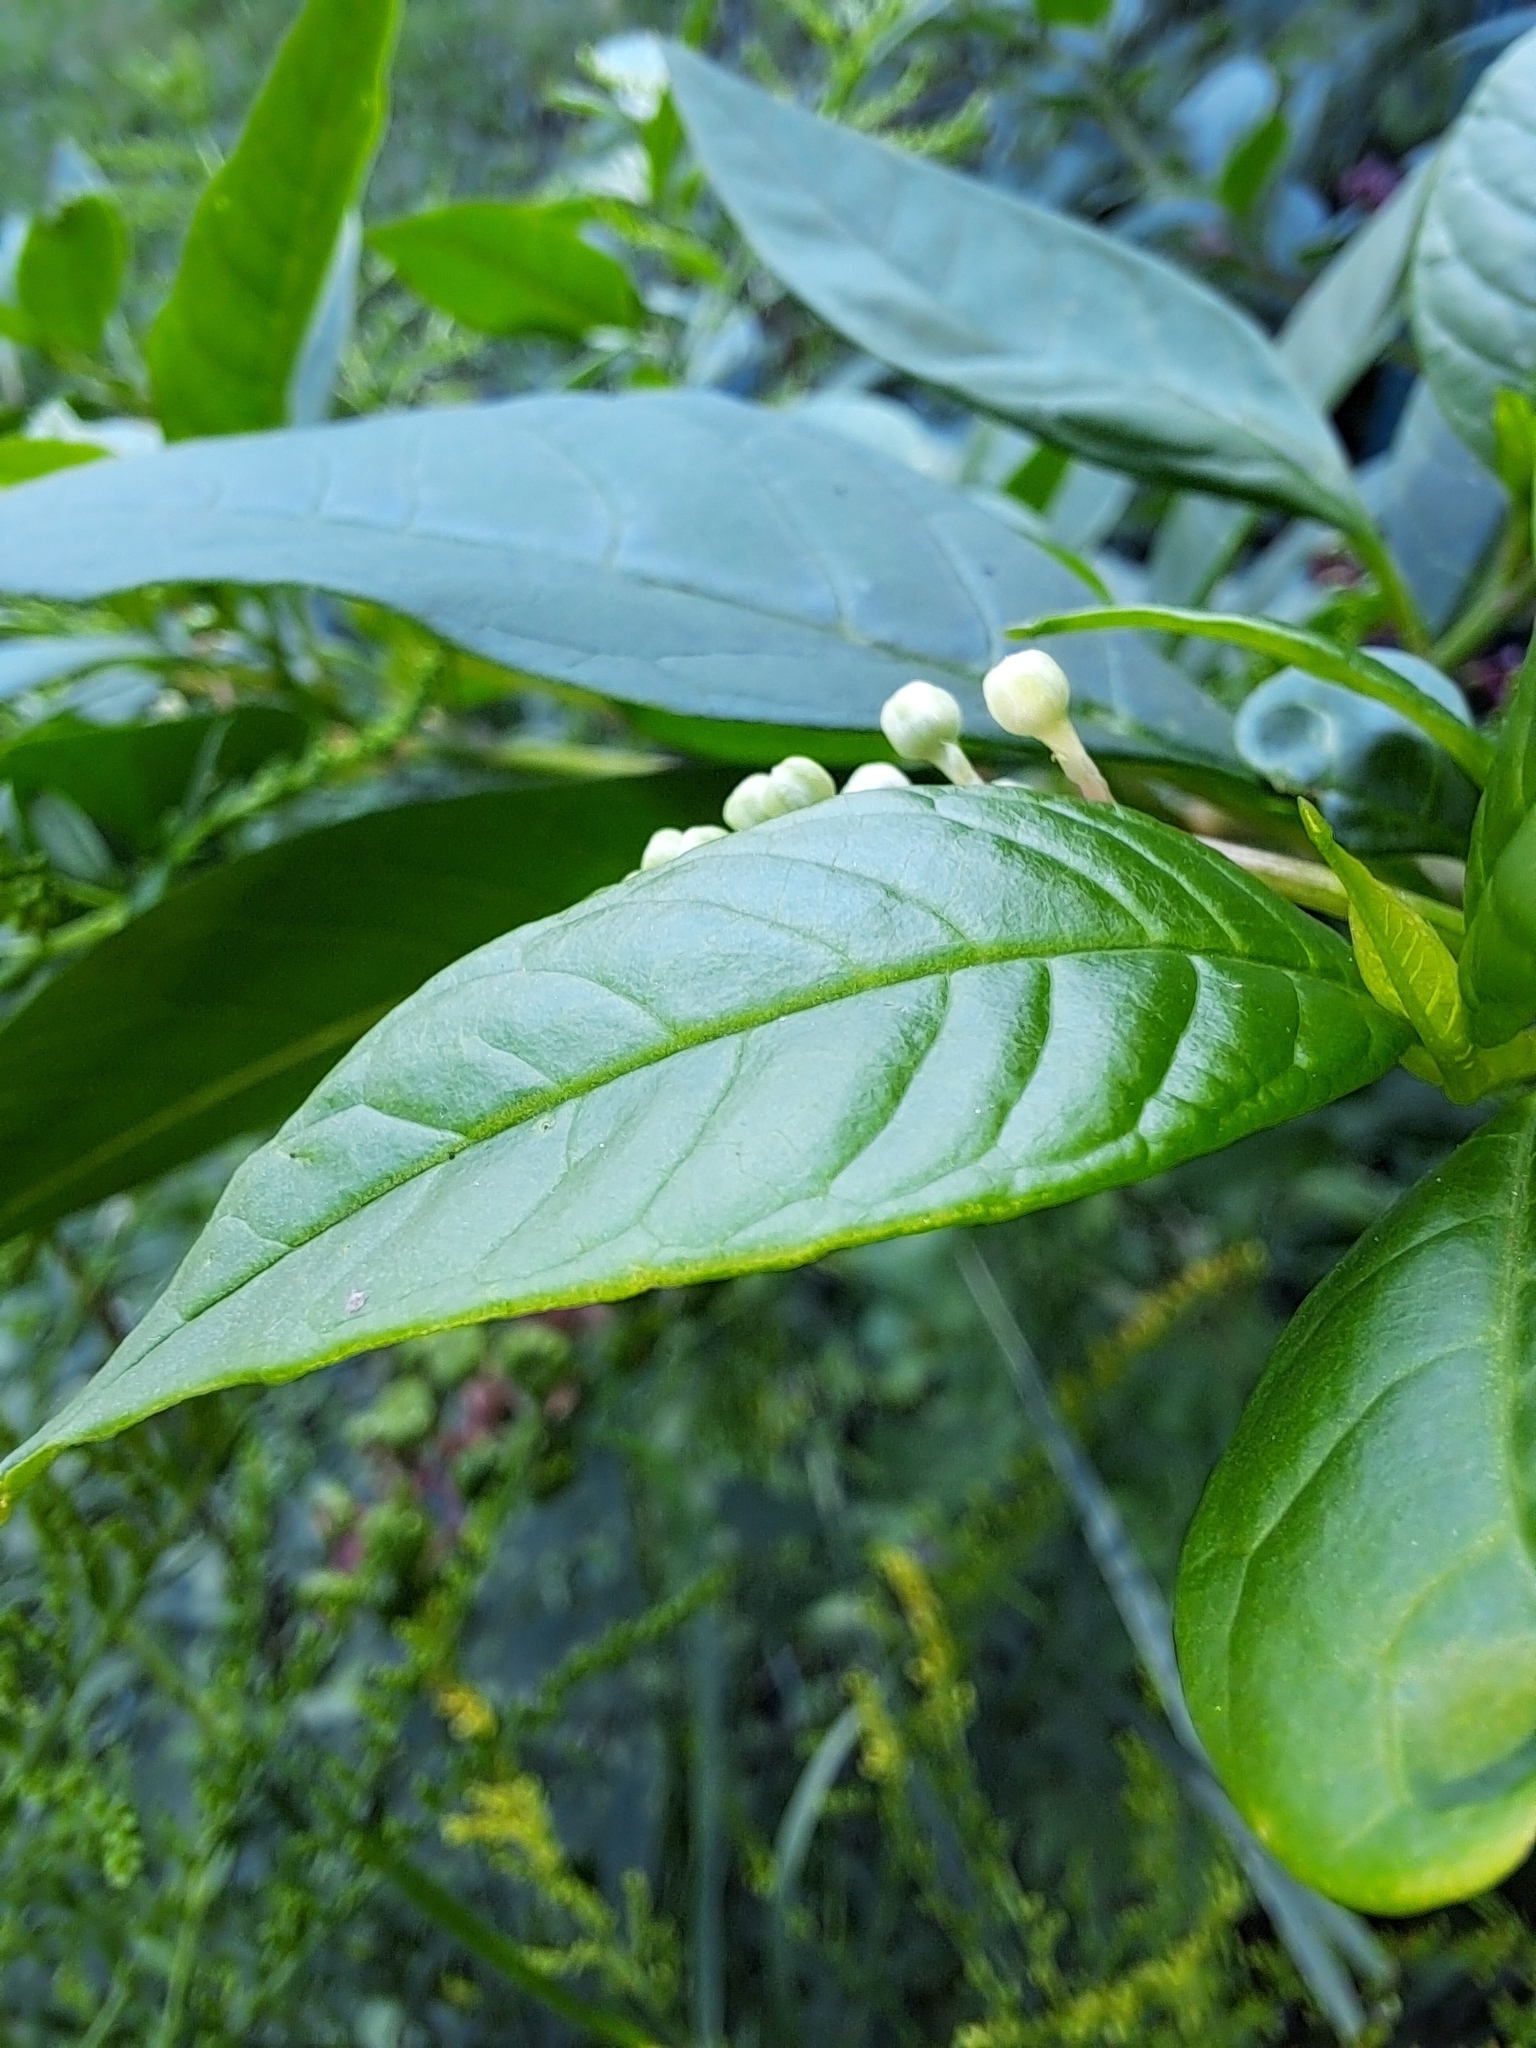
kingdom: Plantae
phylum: Tracheophyta
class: Magnoliopsida
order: Caryophyllales
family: Phytolaccaceae
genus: Phytolacca
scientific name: Phytolacca americana
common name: American pokeweed
